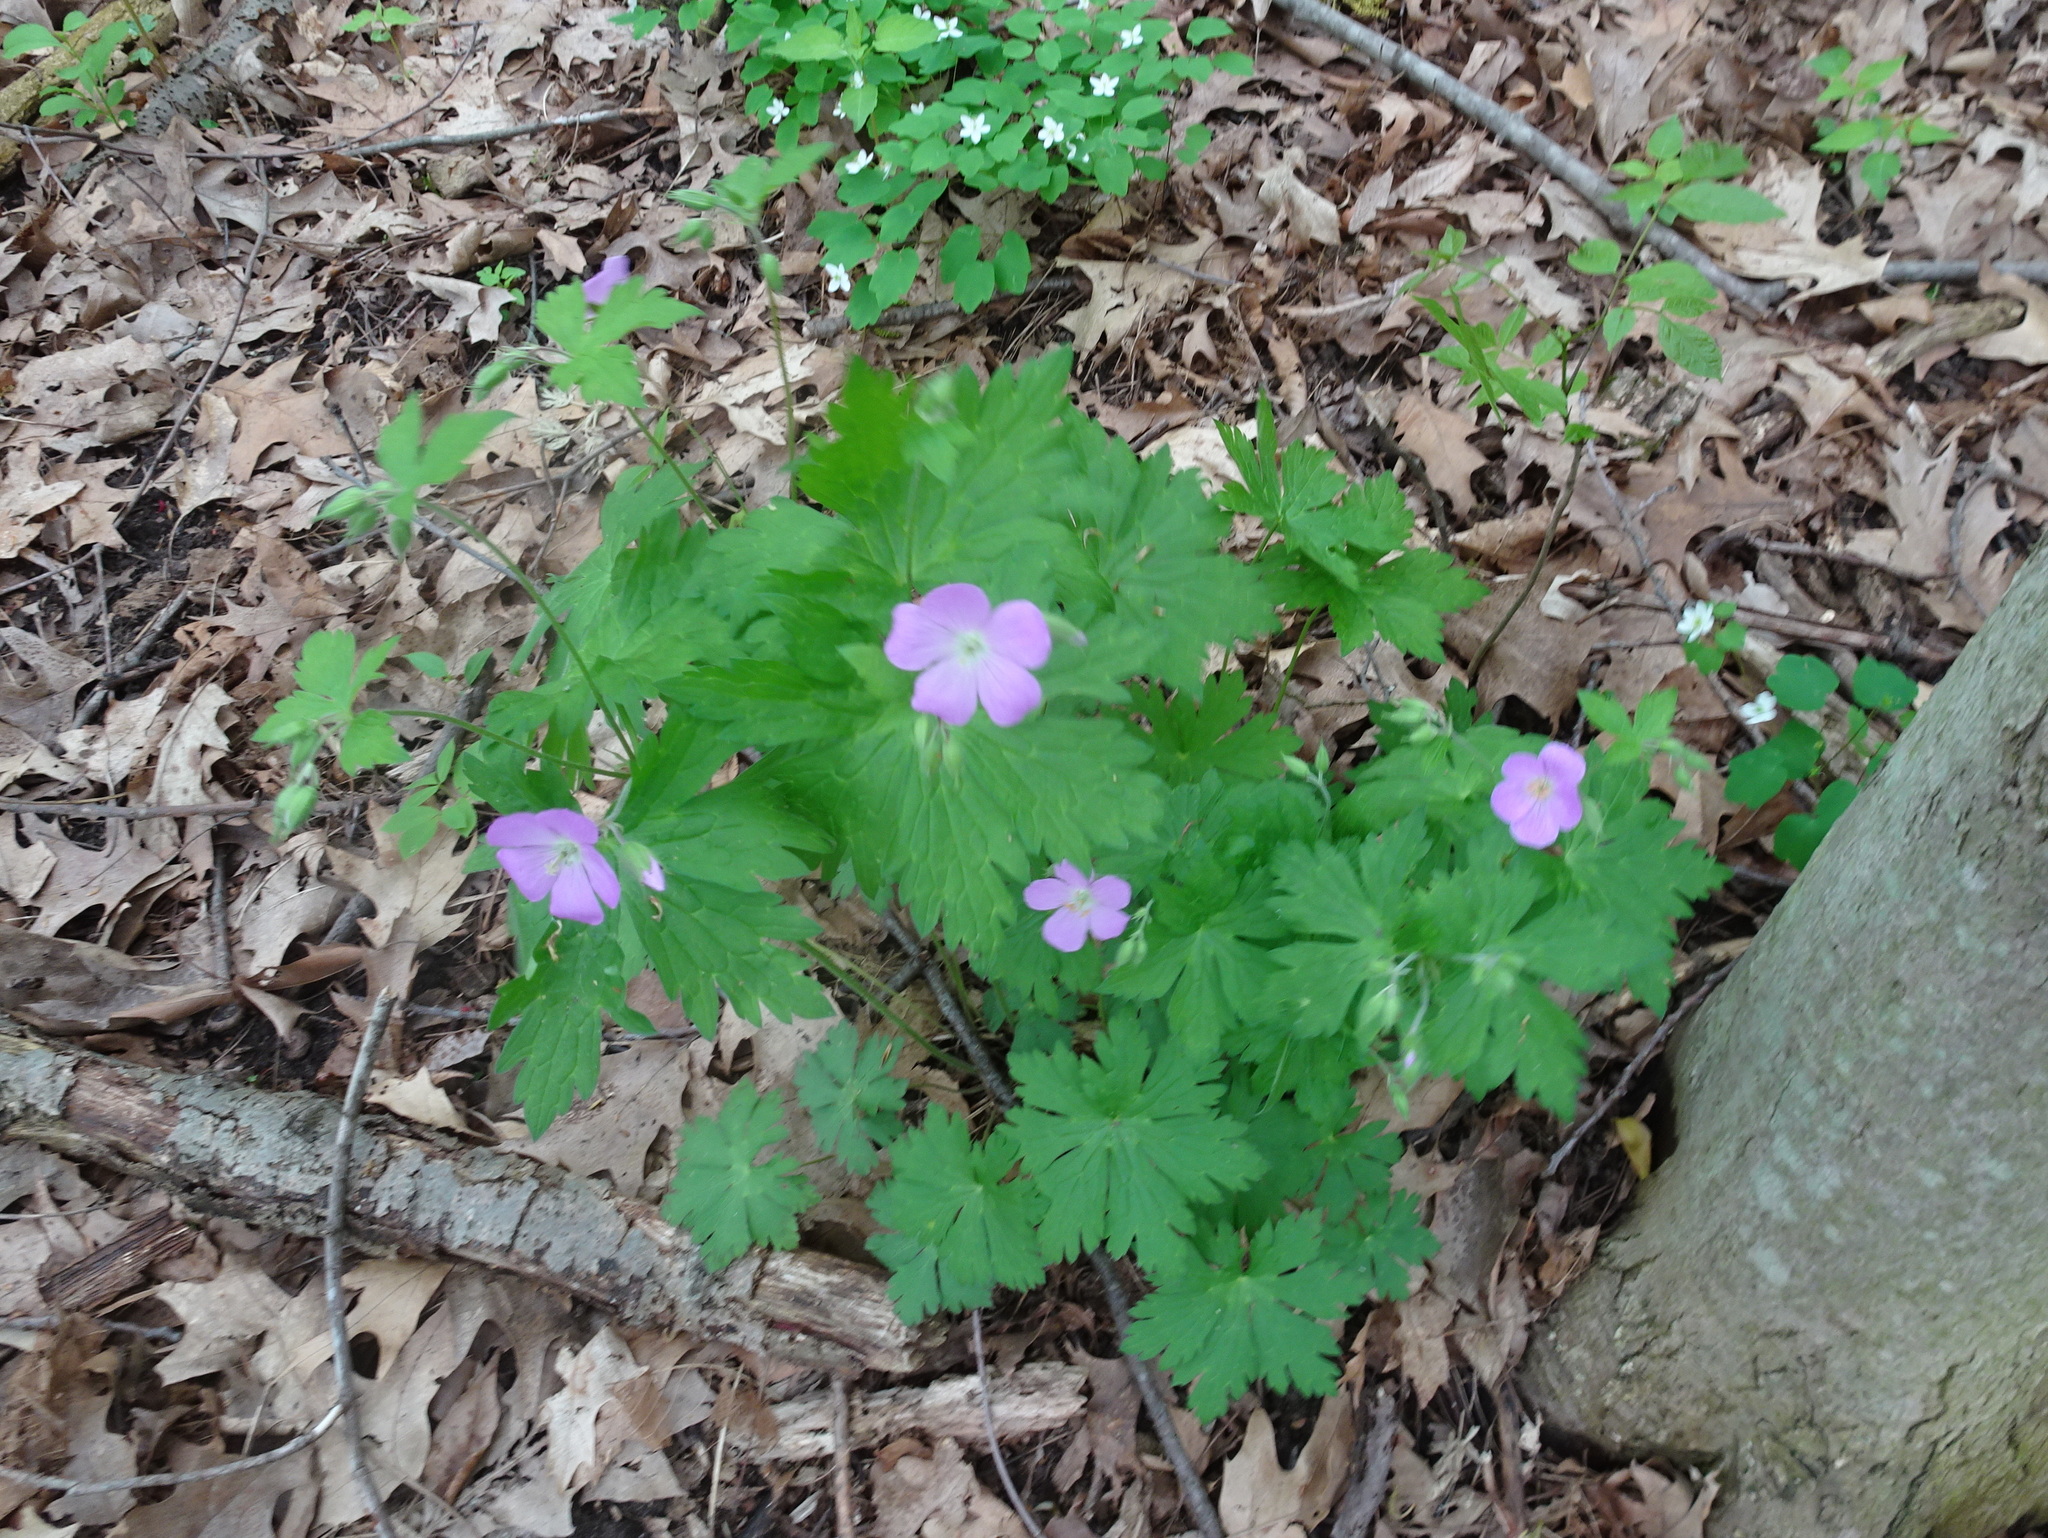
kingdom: Plantae
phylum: Tracheophyta
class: Magnoliopsida
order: Geraniales
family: Geraniaceae
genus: Geranium
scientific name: Geranium maculatum
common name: Spotted geranium
